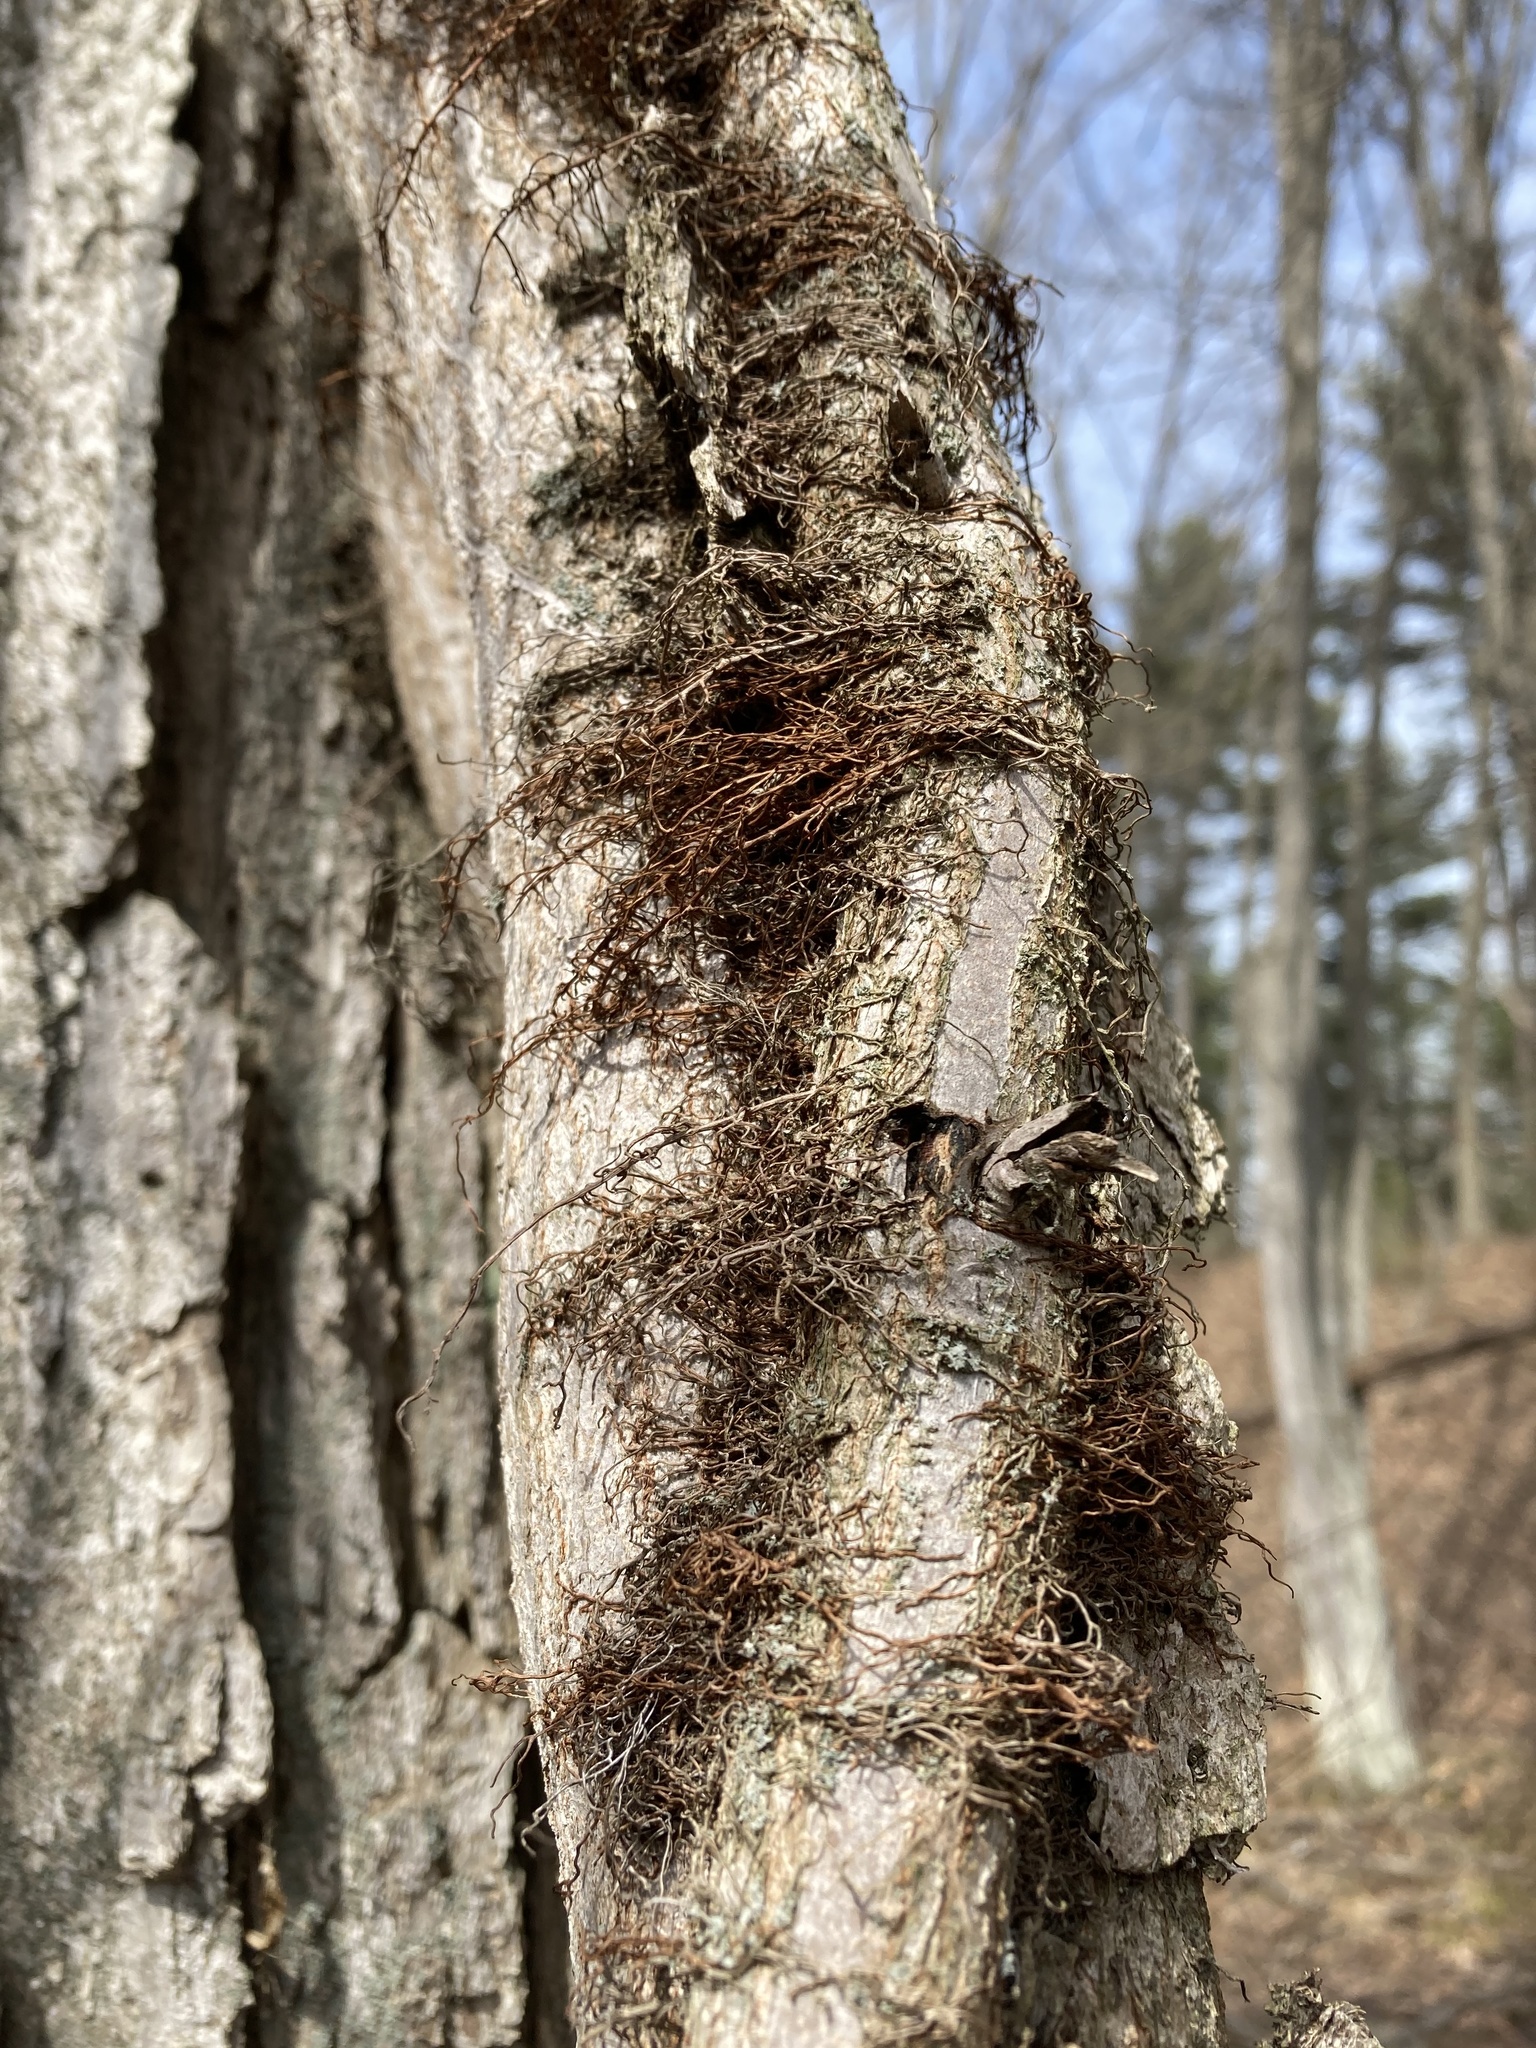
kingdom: Plantae
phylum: Tracheophyta
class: Magnoliopsida
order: Sapindales
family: Anacardiaceae
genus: Toxicodendron
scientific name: Toxicodendron radicans
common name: Poison ivy
